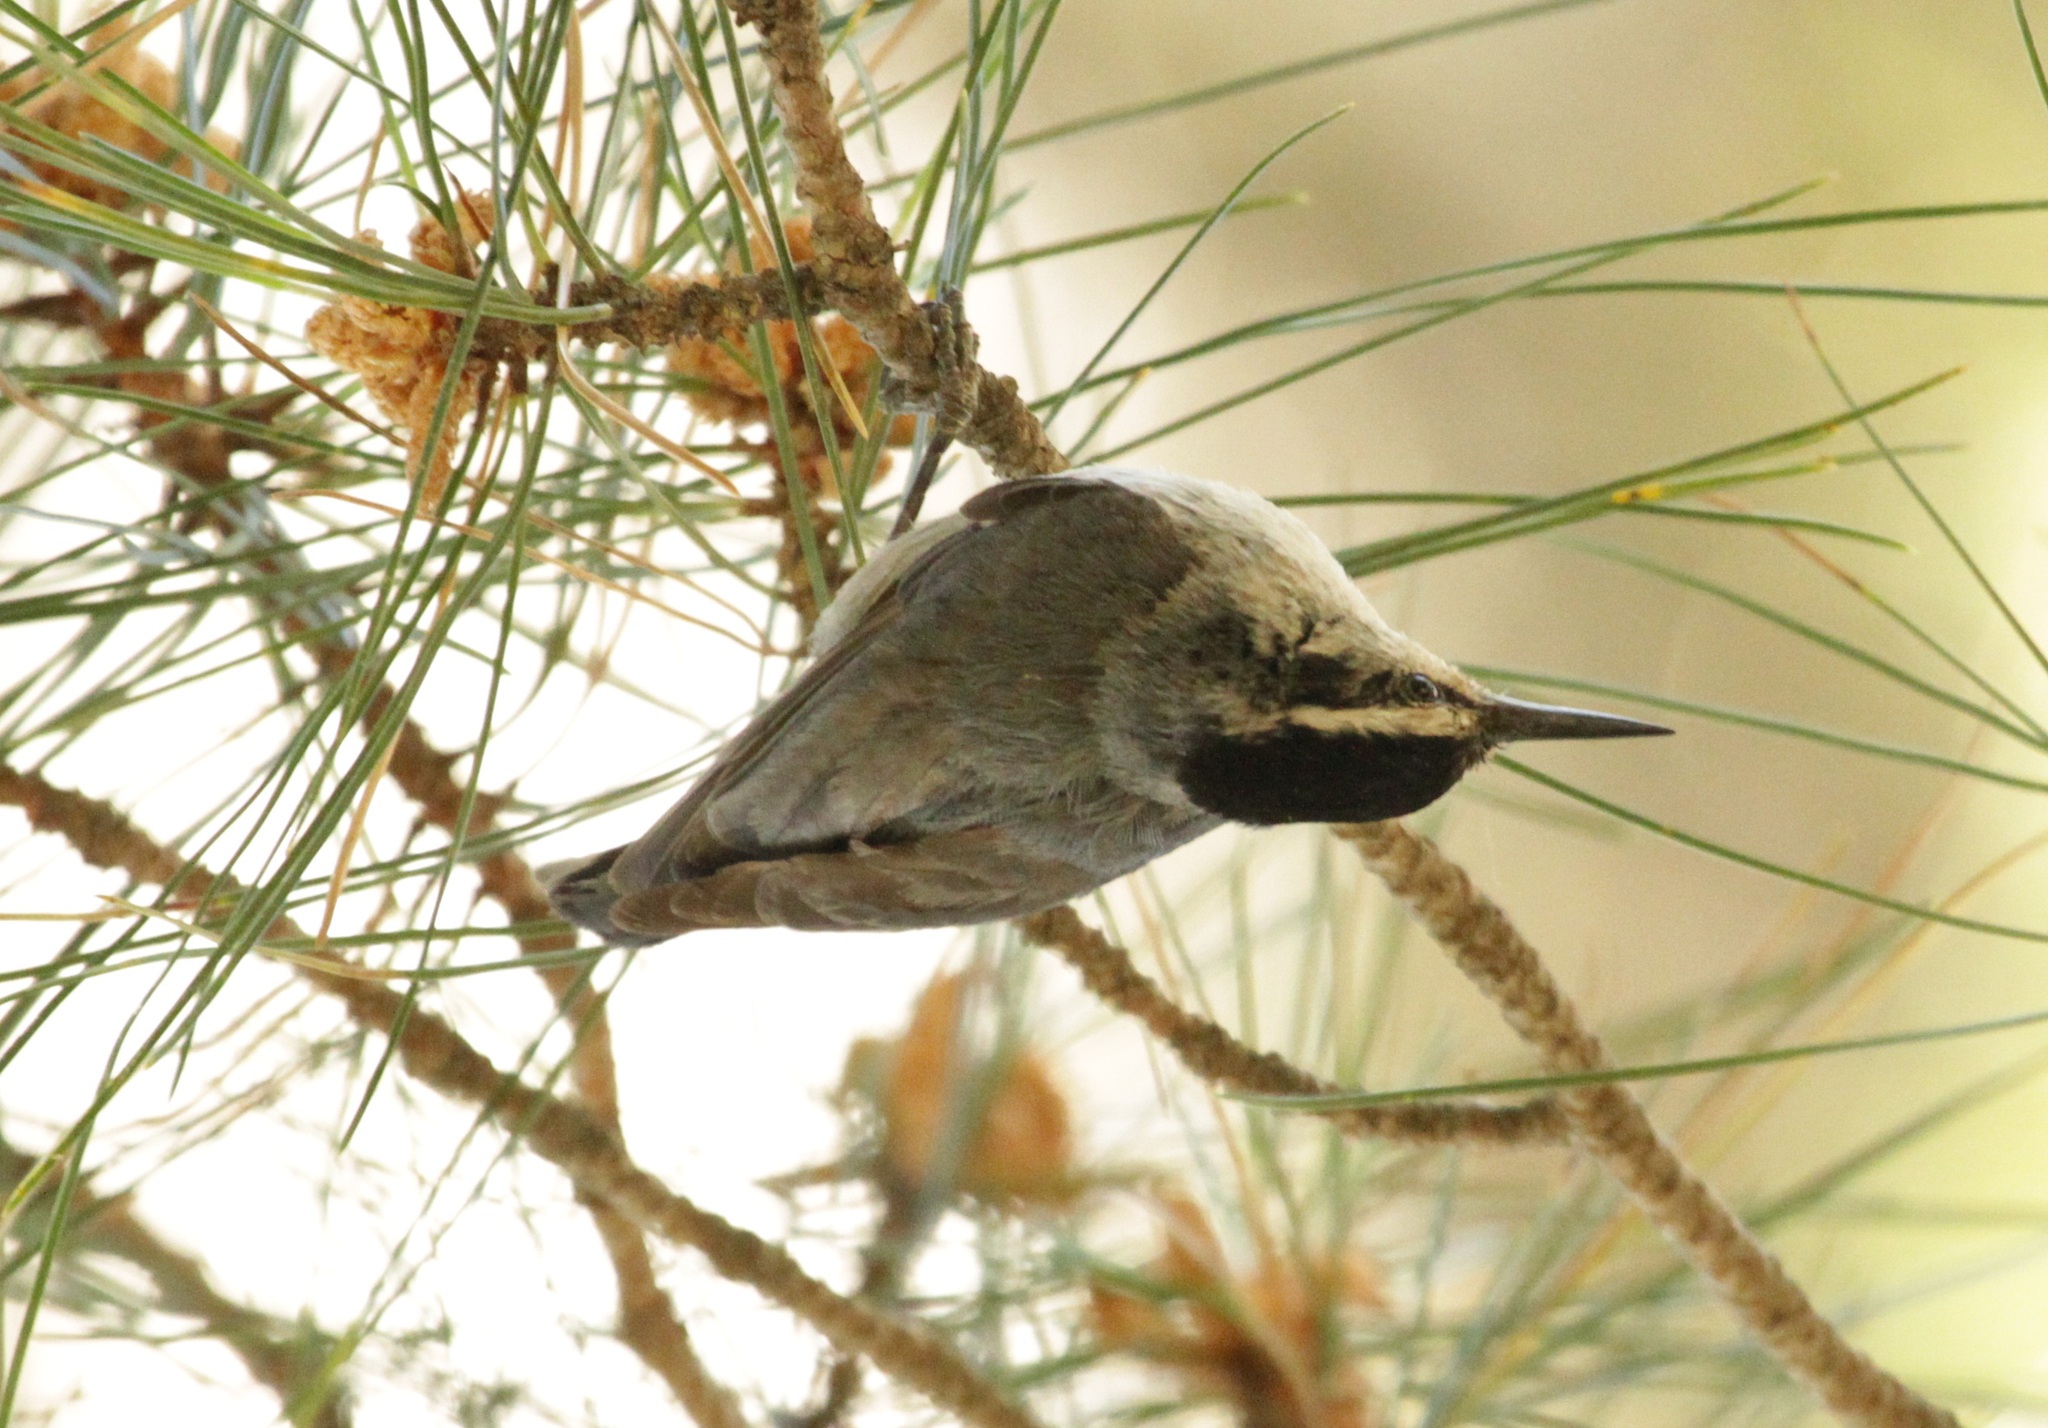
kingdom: Animalia
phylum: Chordata
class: Aves
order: Passeriformes
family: Sittidae
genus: Sitta
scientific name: Sitta whiteheadi
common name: Corsican nuthatch
